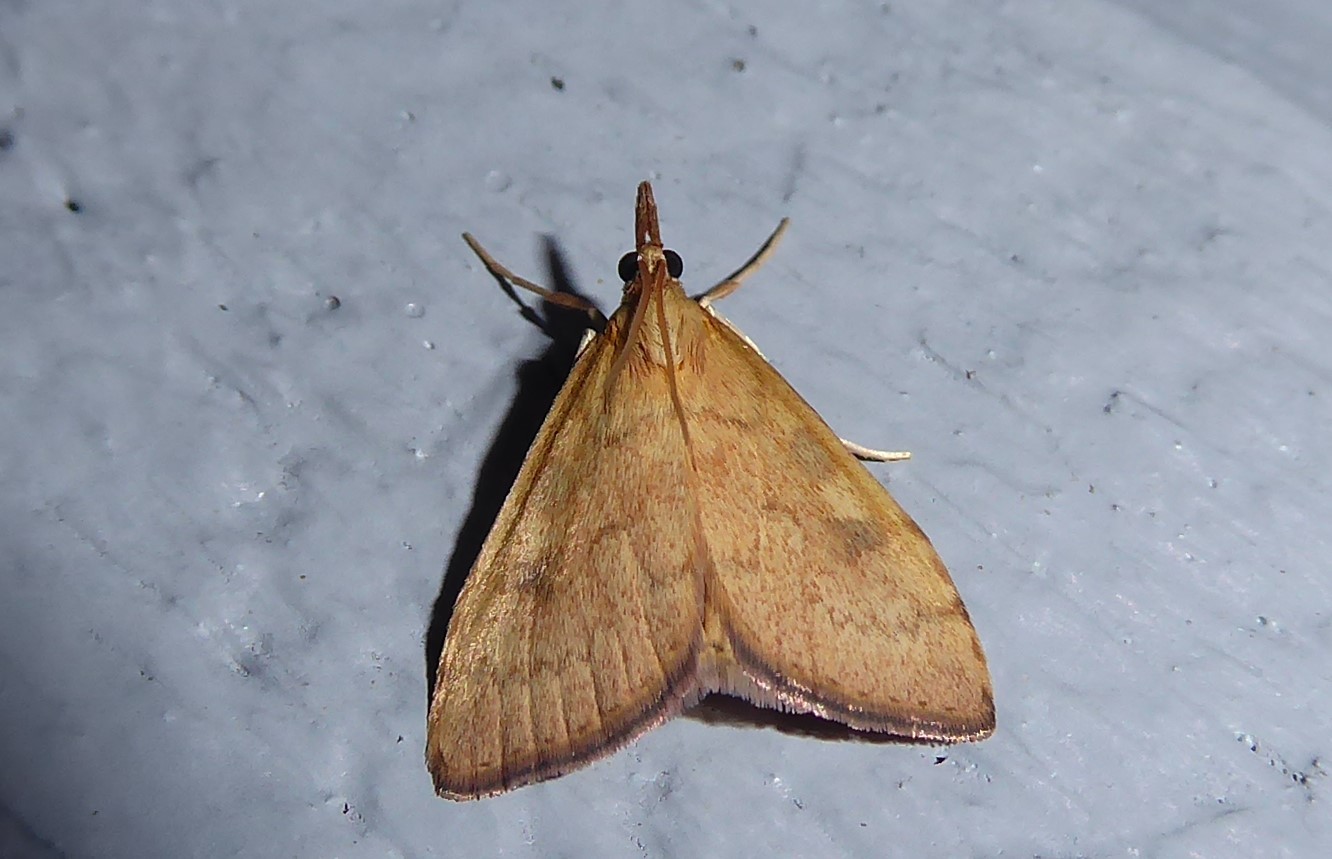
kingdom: Animalia
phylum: Arthropoda
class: Insecta
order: Lepidoptera
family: Crambidae
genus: Udea
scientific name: Udea Mnesictena flavidalis
